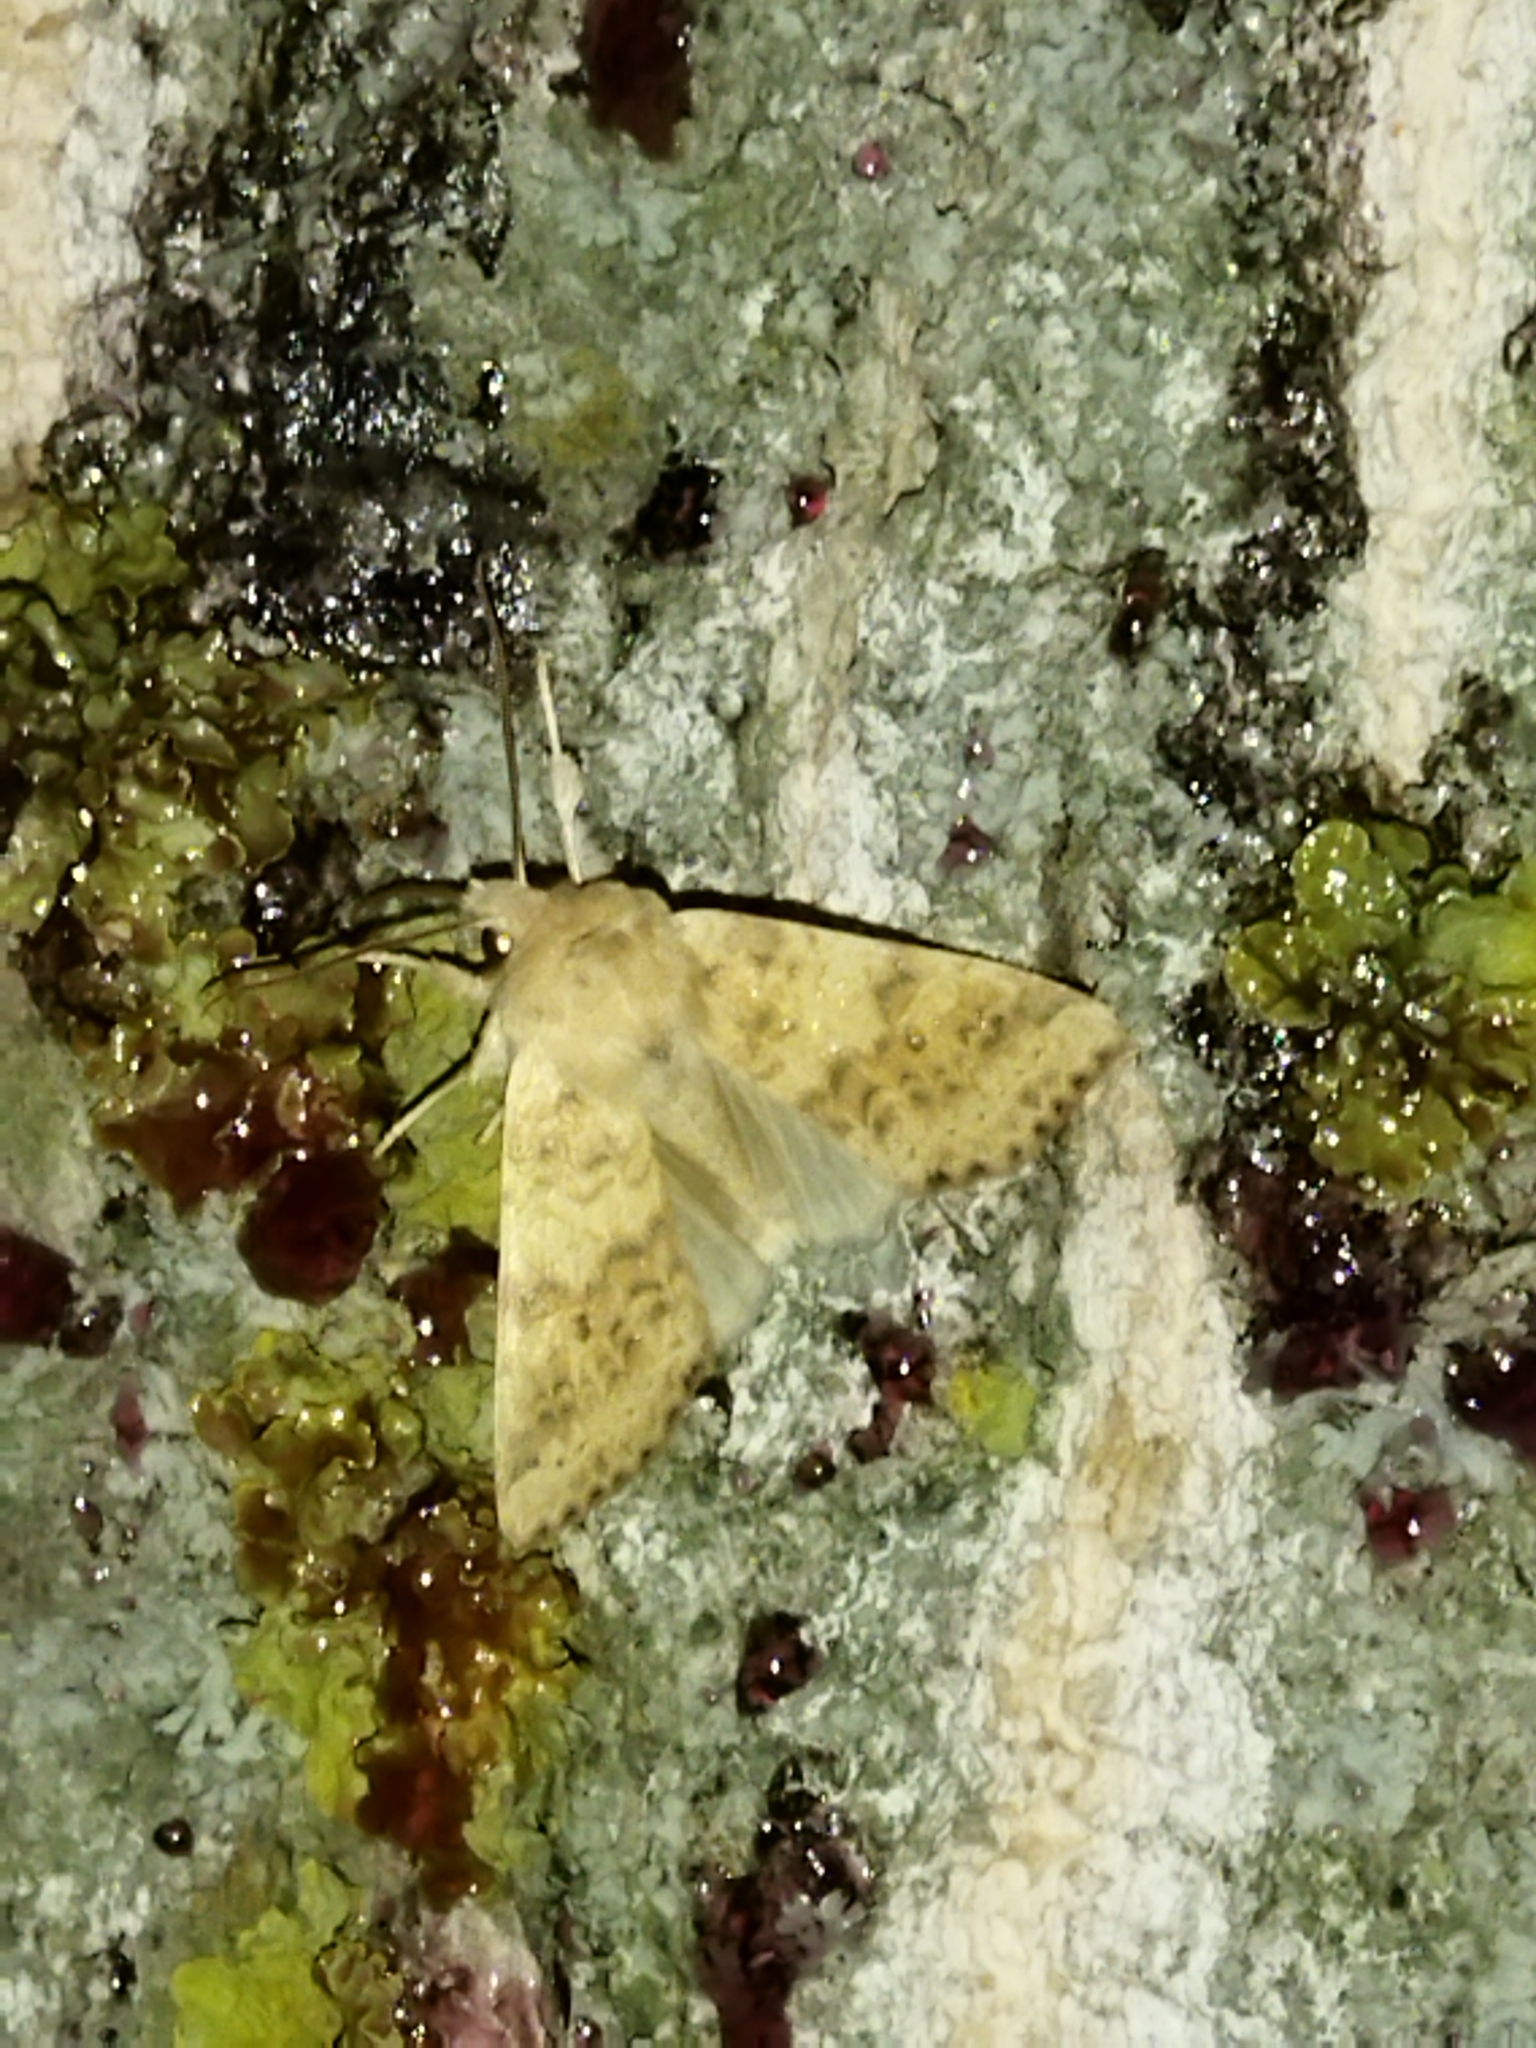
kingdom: Animalia
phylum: Arthropoda
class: Insecta
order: Lepidoptera
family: Noctuidae
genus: Xanthia
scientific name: Xanthia gilvago
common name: Dusky-lemon sallow
